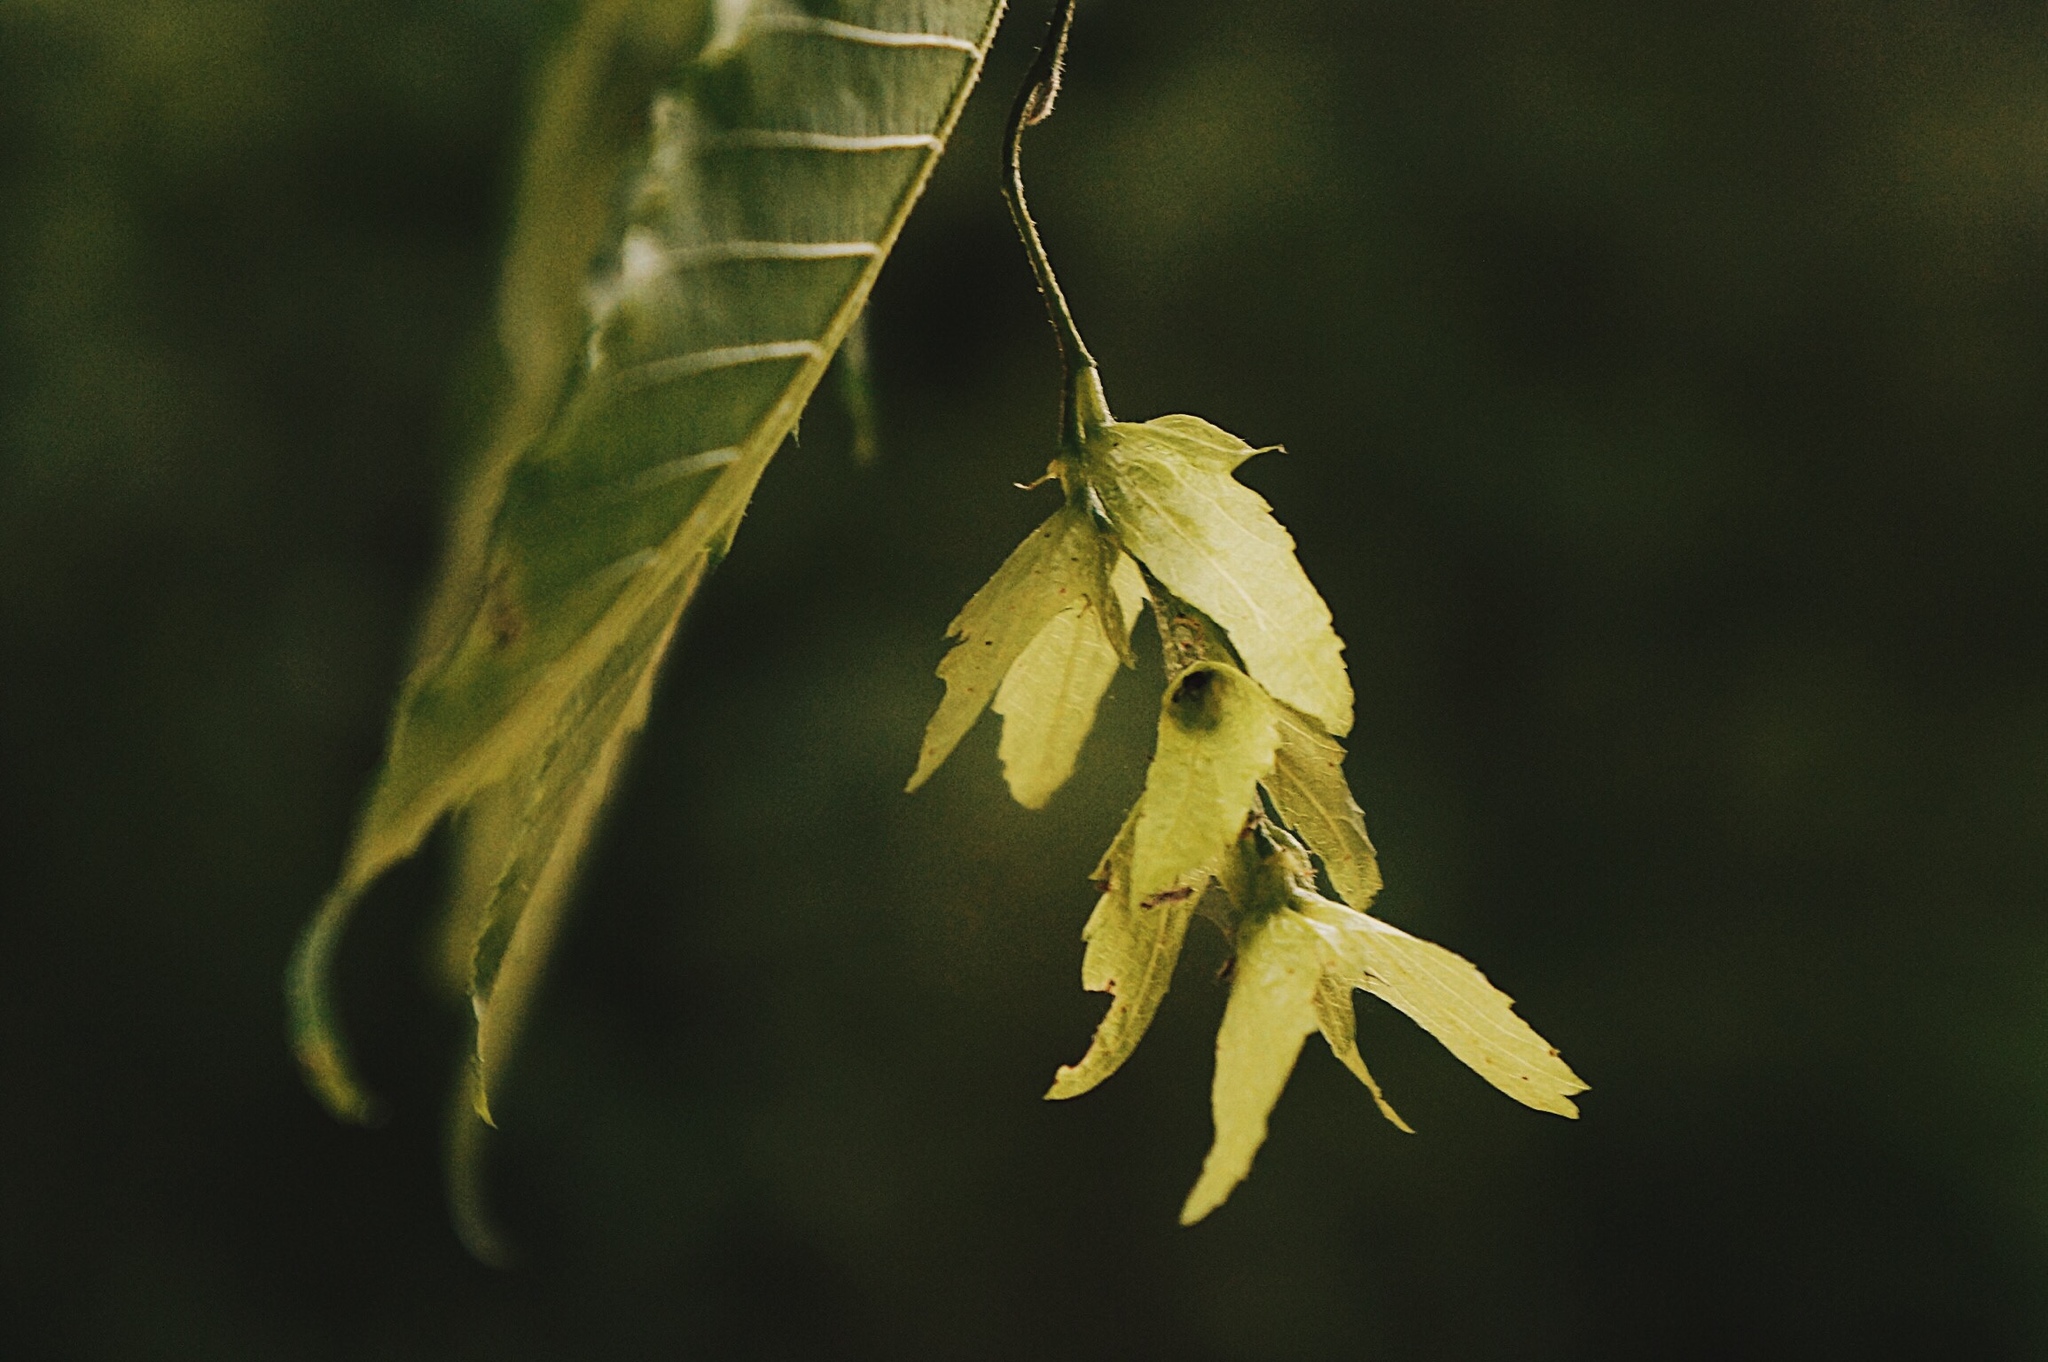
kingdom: Plantae
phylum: Tracheophyta
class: Magnoliopsida
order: Fagales
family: Betulaceae
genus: Carpinus
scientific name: Carpinus tropicalis
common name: Hornbeam
